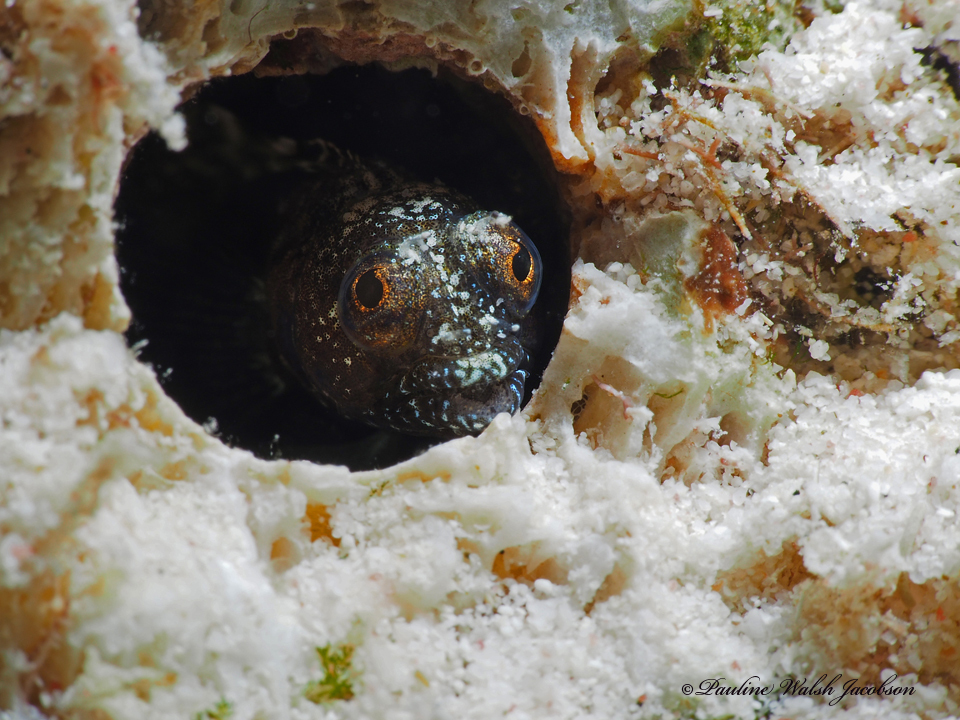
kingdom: Animalia
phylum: Chordata
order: Perciformes
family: Chaenopsidae
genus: Emblemaria
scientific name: Emblemaria pandionis
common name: Sailfin blenny
